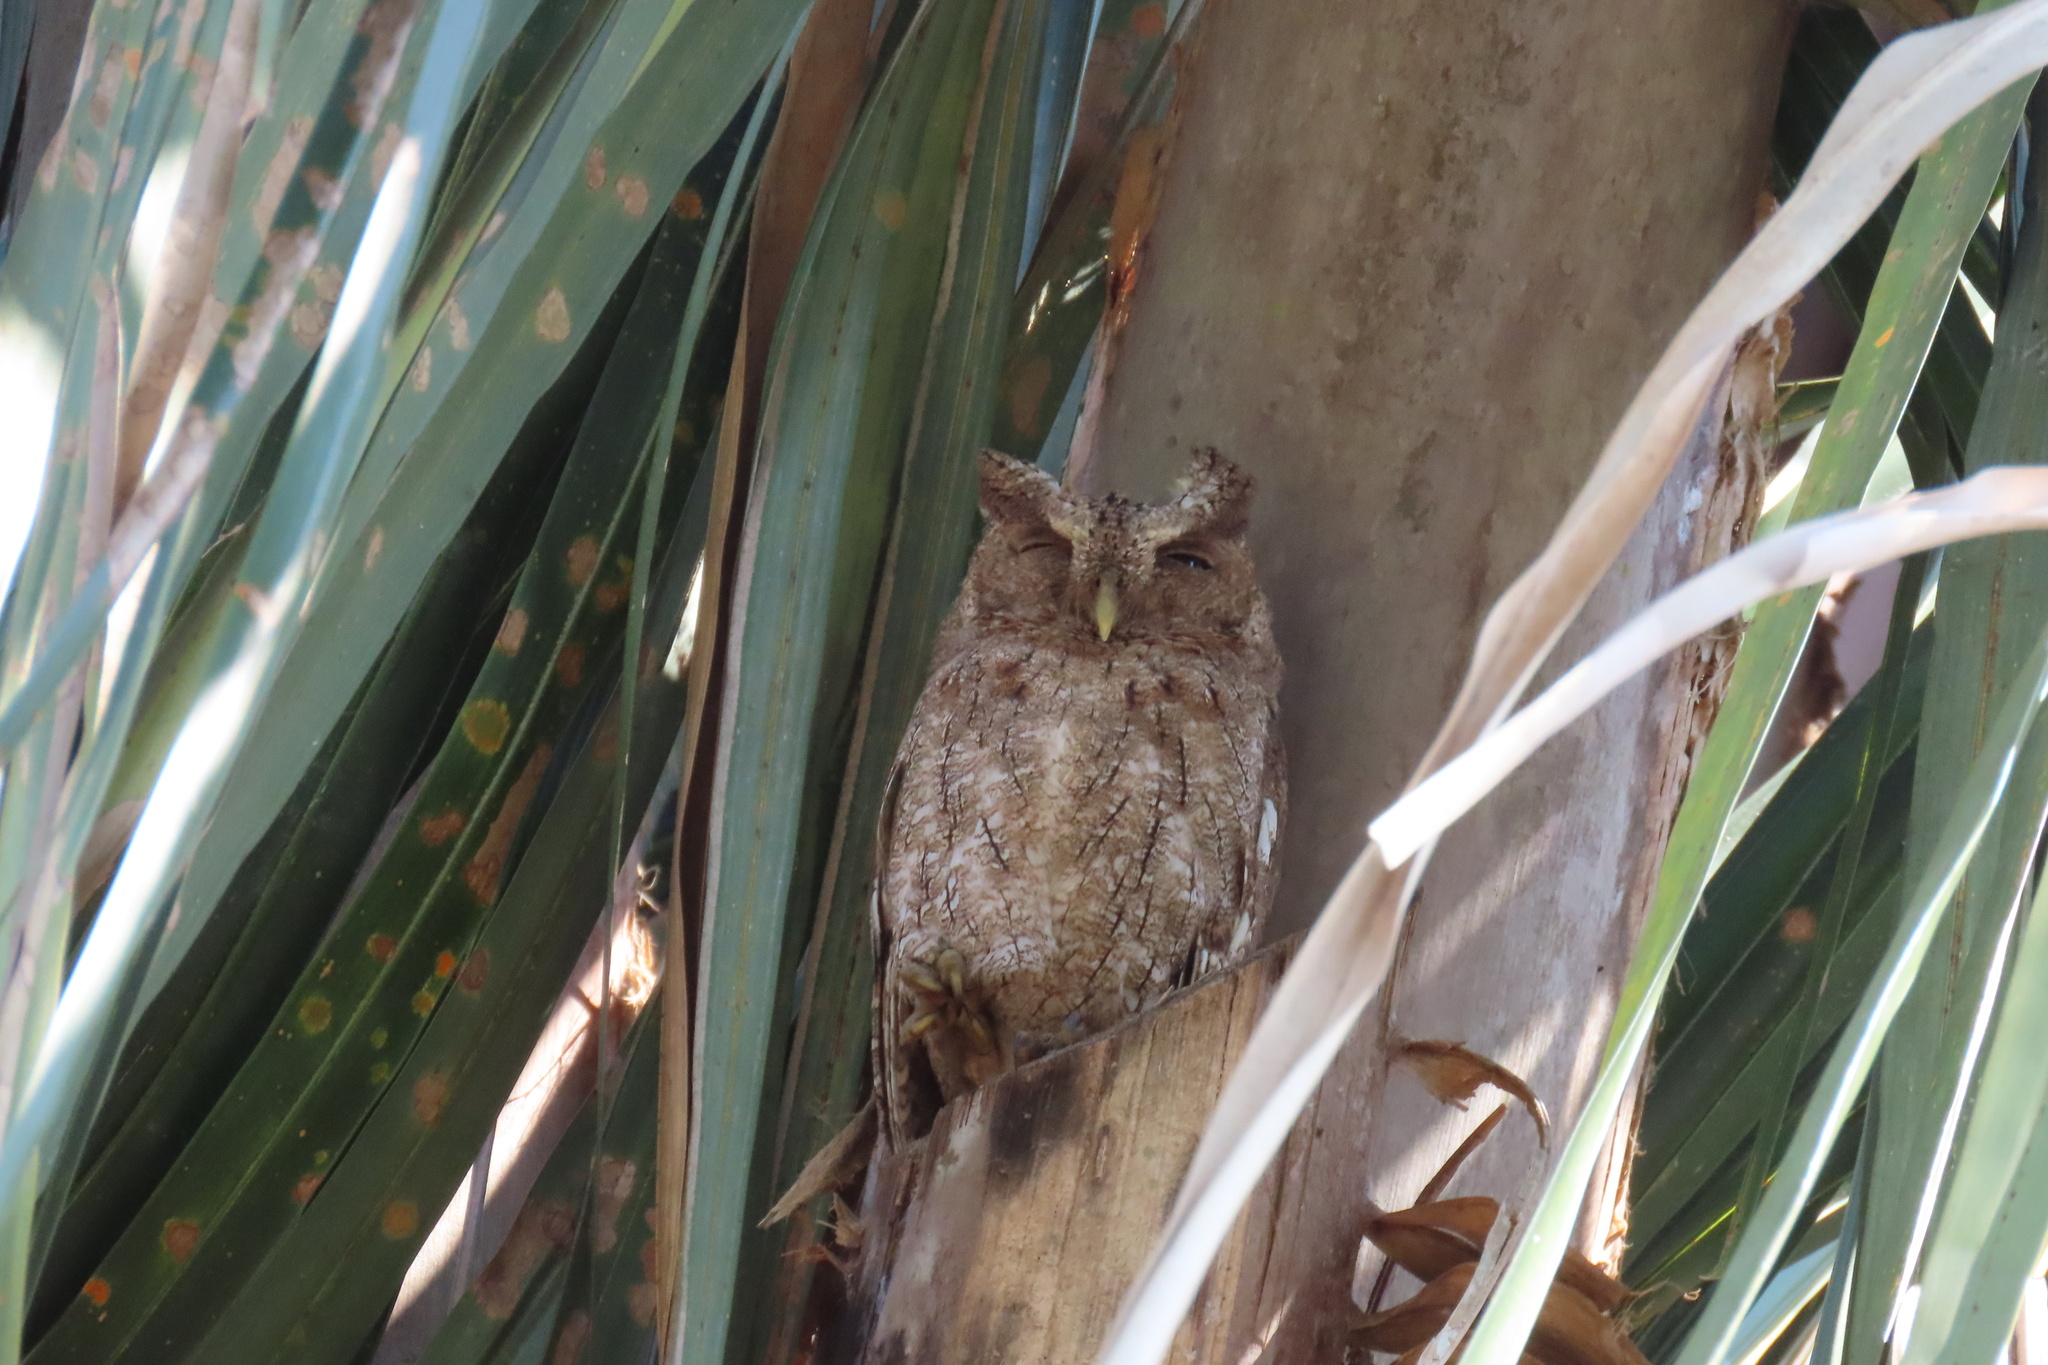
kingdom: Animalia
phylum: Chordata
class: Aves
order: Strigiformes
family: Strigidae
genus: Megascops
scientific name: Megascops cooperi
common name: Pacific screech-owl
